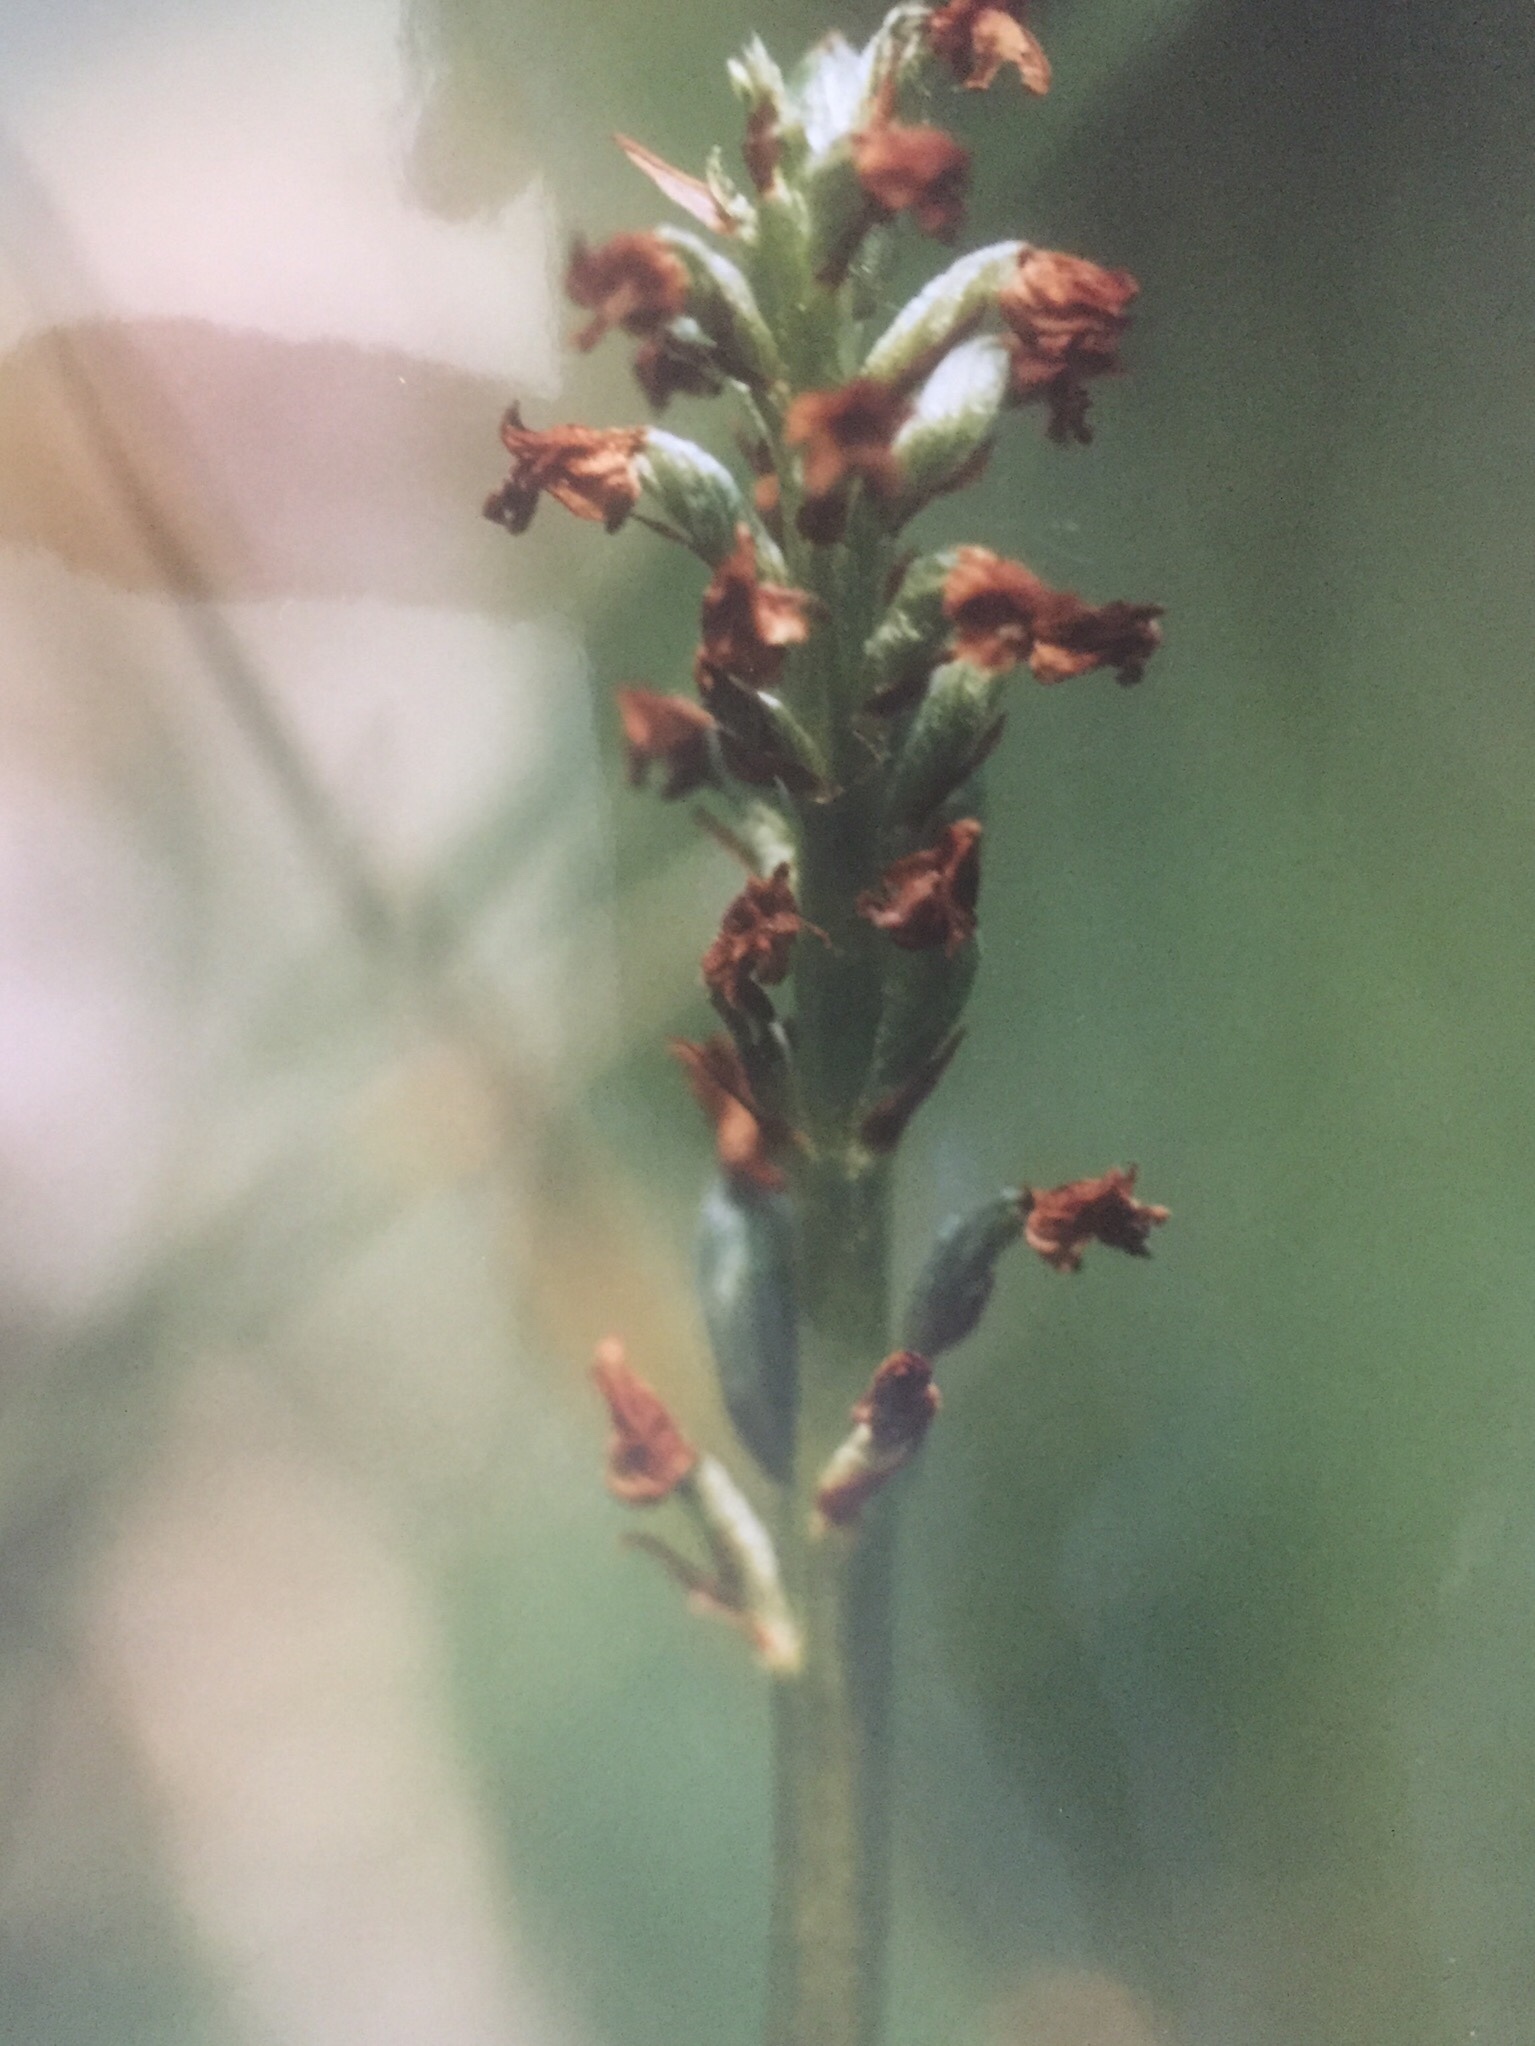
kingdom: Plantae
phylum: Tracheophyta
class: Liliopsida
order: Asparagales
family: Orchidaceae
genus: Neotinea
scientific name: Neotinea ustulata
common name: Burnt orchid
